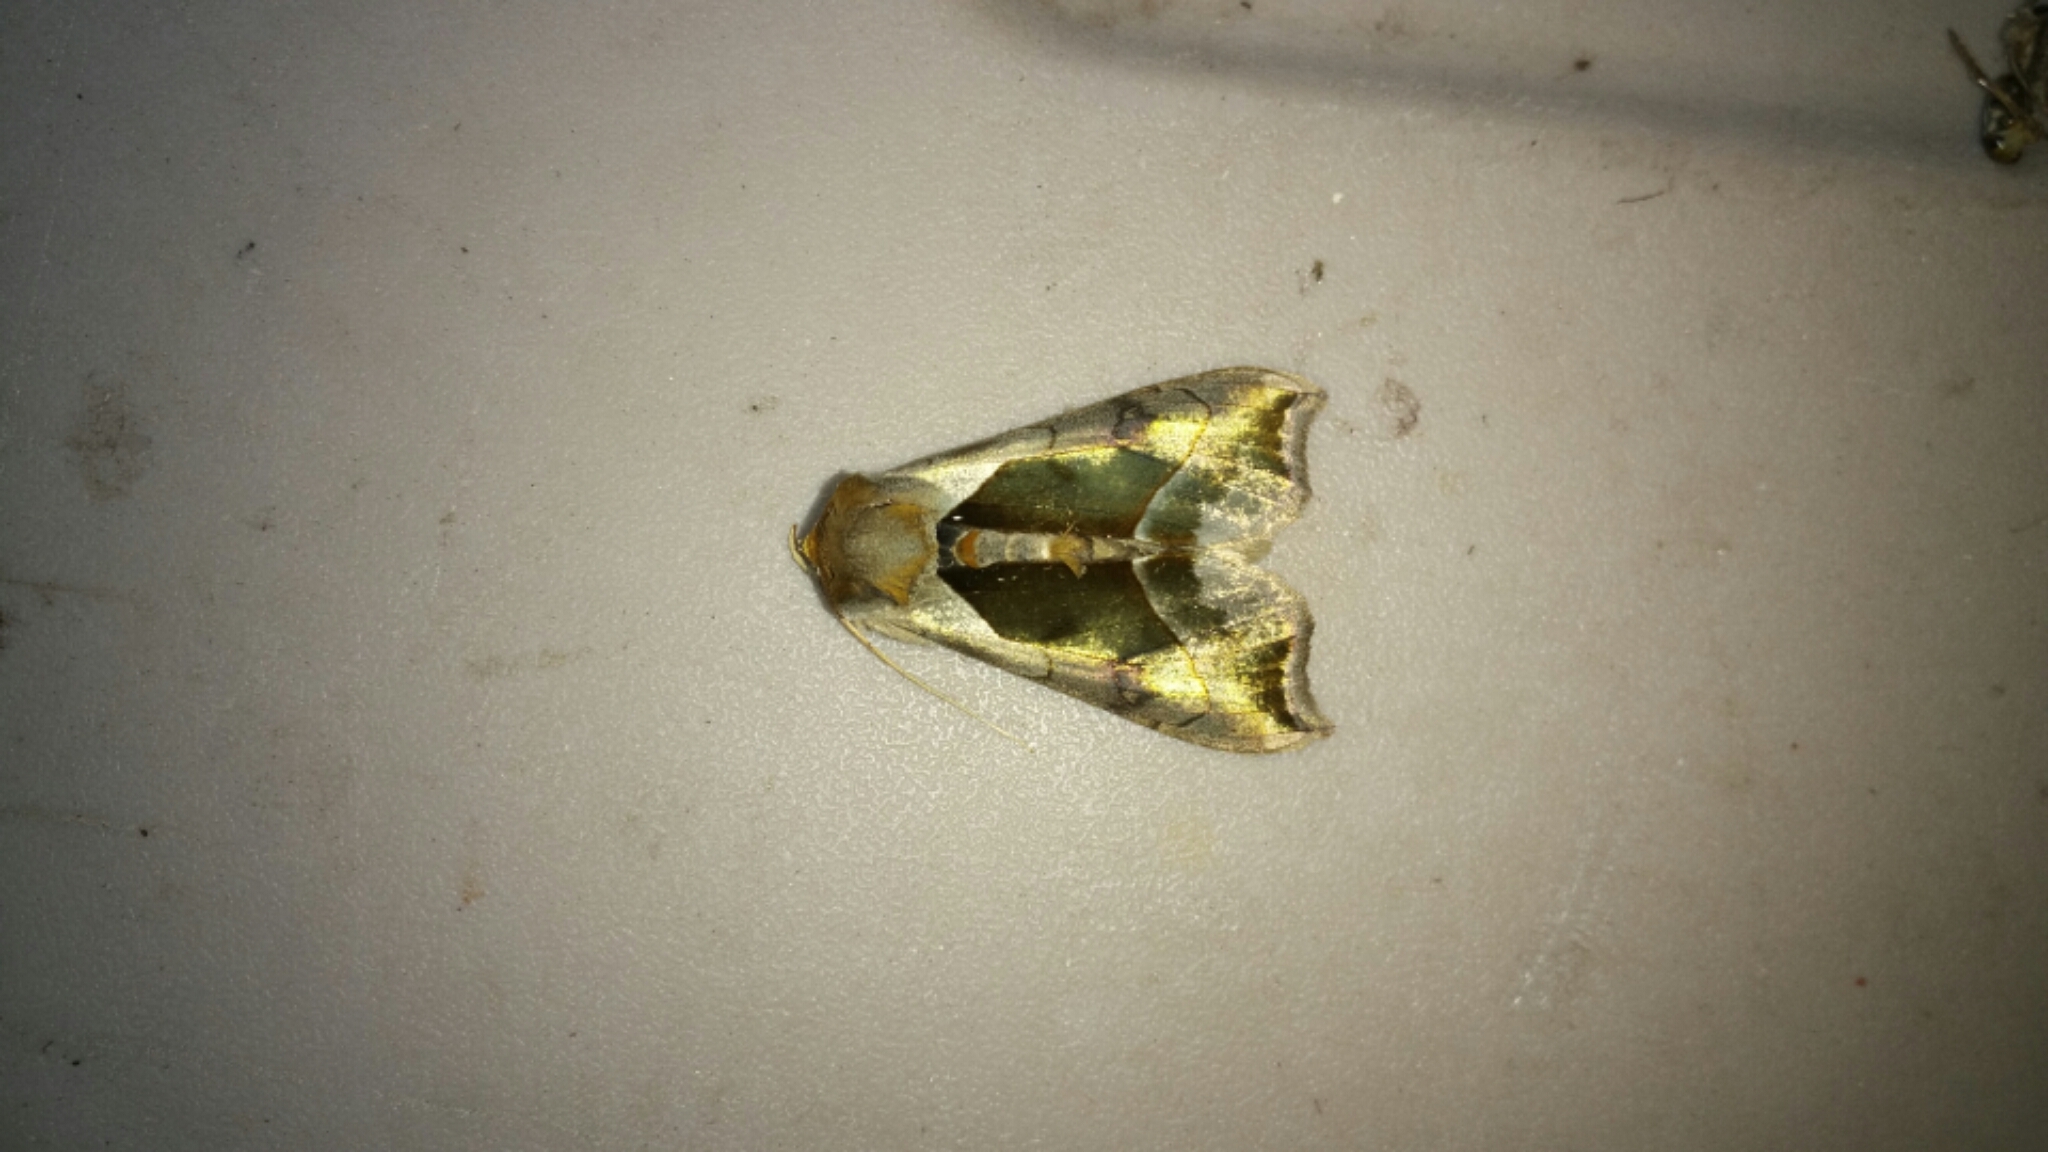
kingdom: Animalia
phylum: Arthropoda
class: Insecta
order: Lepidoptera
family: Noctuidae
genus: Diachrysia
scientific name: Diachrysia balluca
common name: Green-patched looper moth
